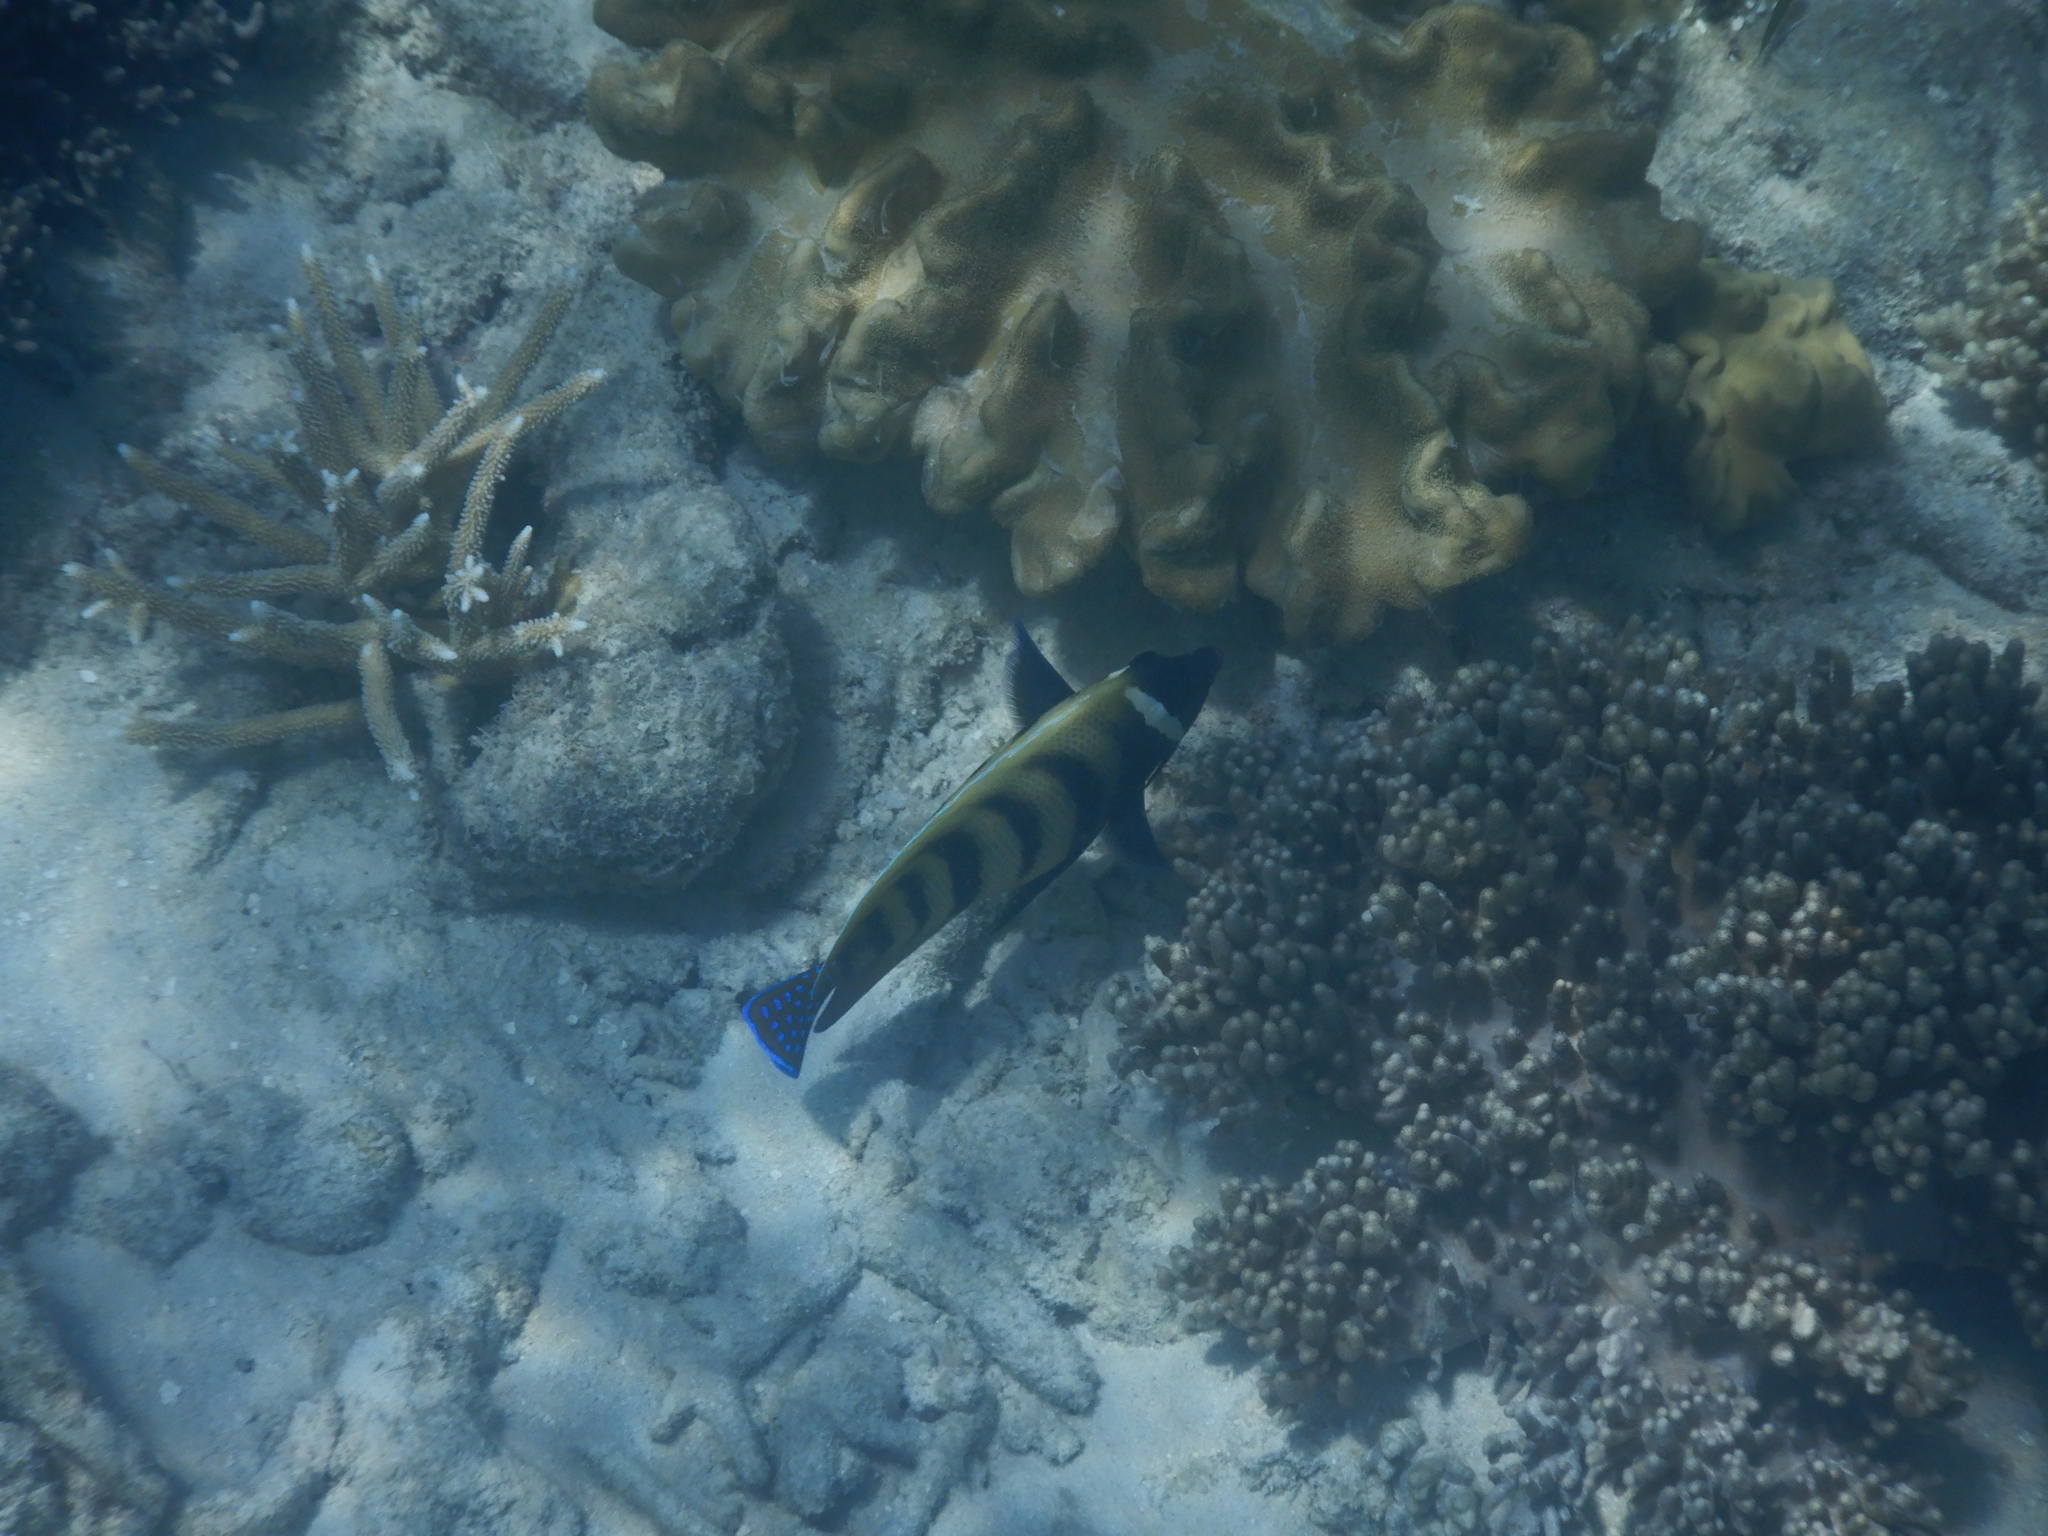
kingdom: Animalia
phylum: Chordata
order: Perciformes
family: Pomacanthidae
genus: Pomacanthus
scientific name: Pomacanthus sexstriatus
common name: Six-banded angelfish
